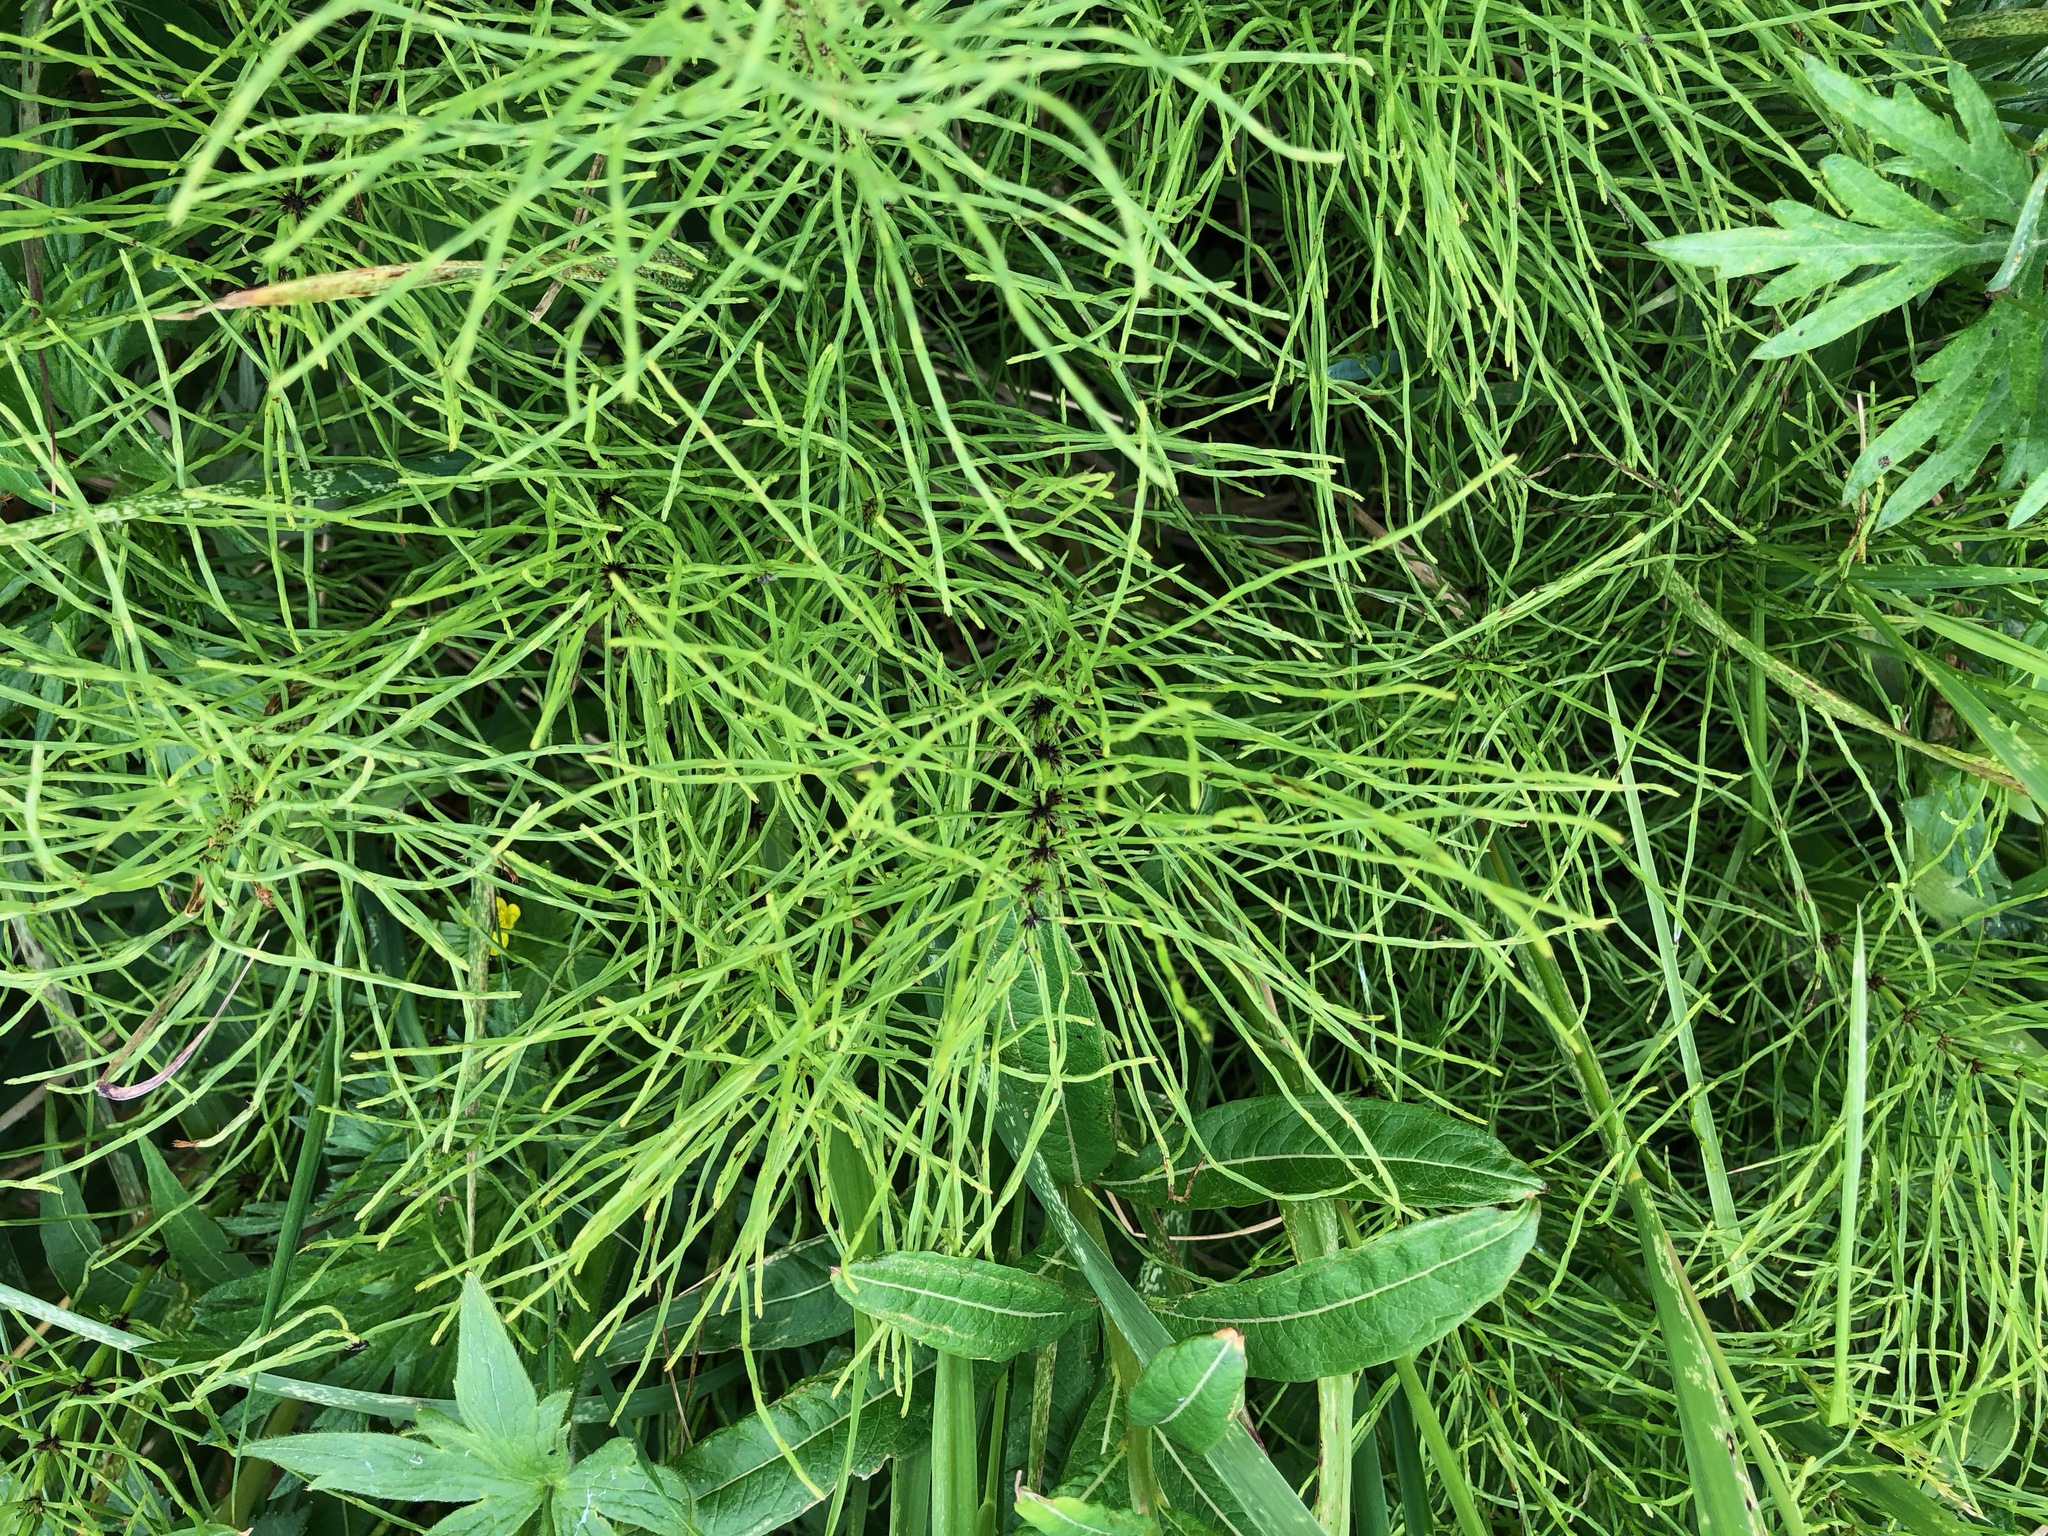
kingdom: Plantae
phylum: Tracheophyta
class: Polypodiopsida
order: Equisetales
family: Equisetaceae
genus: Equisetum
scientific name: Equisetum arvense
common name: Field horsetail
